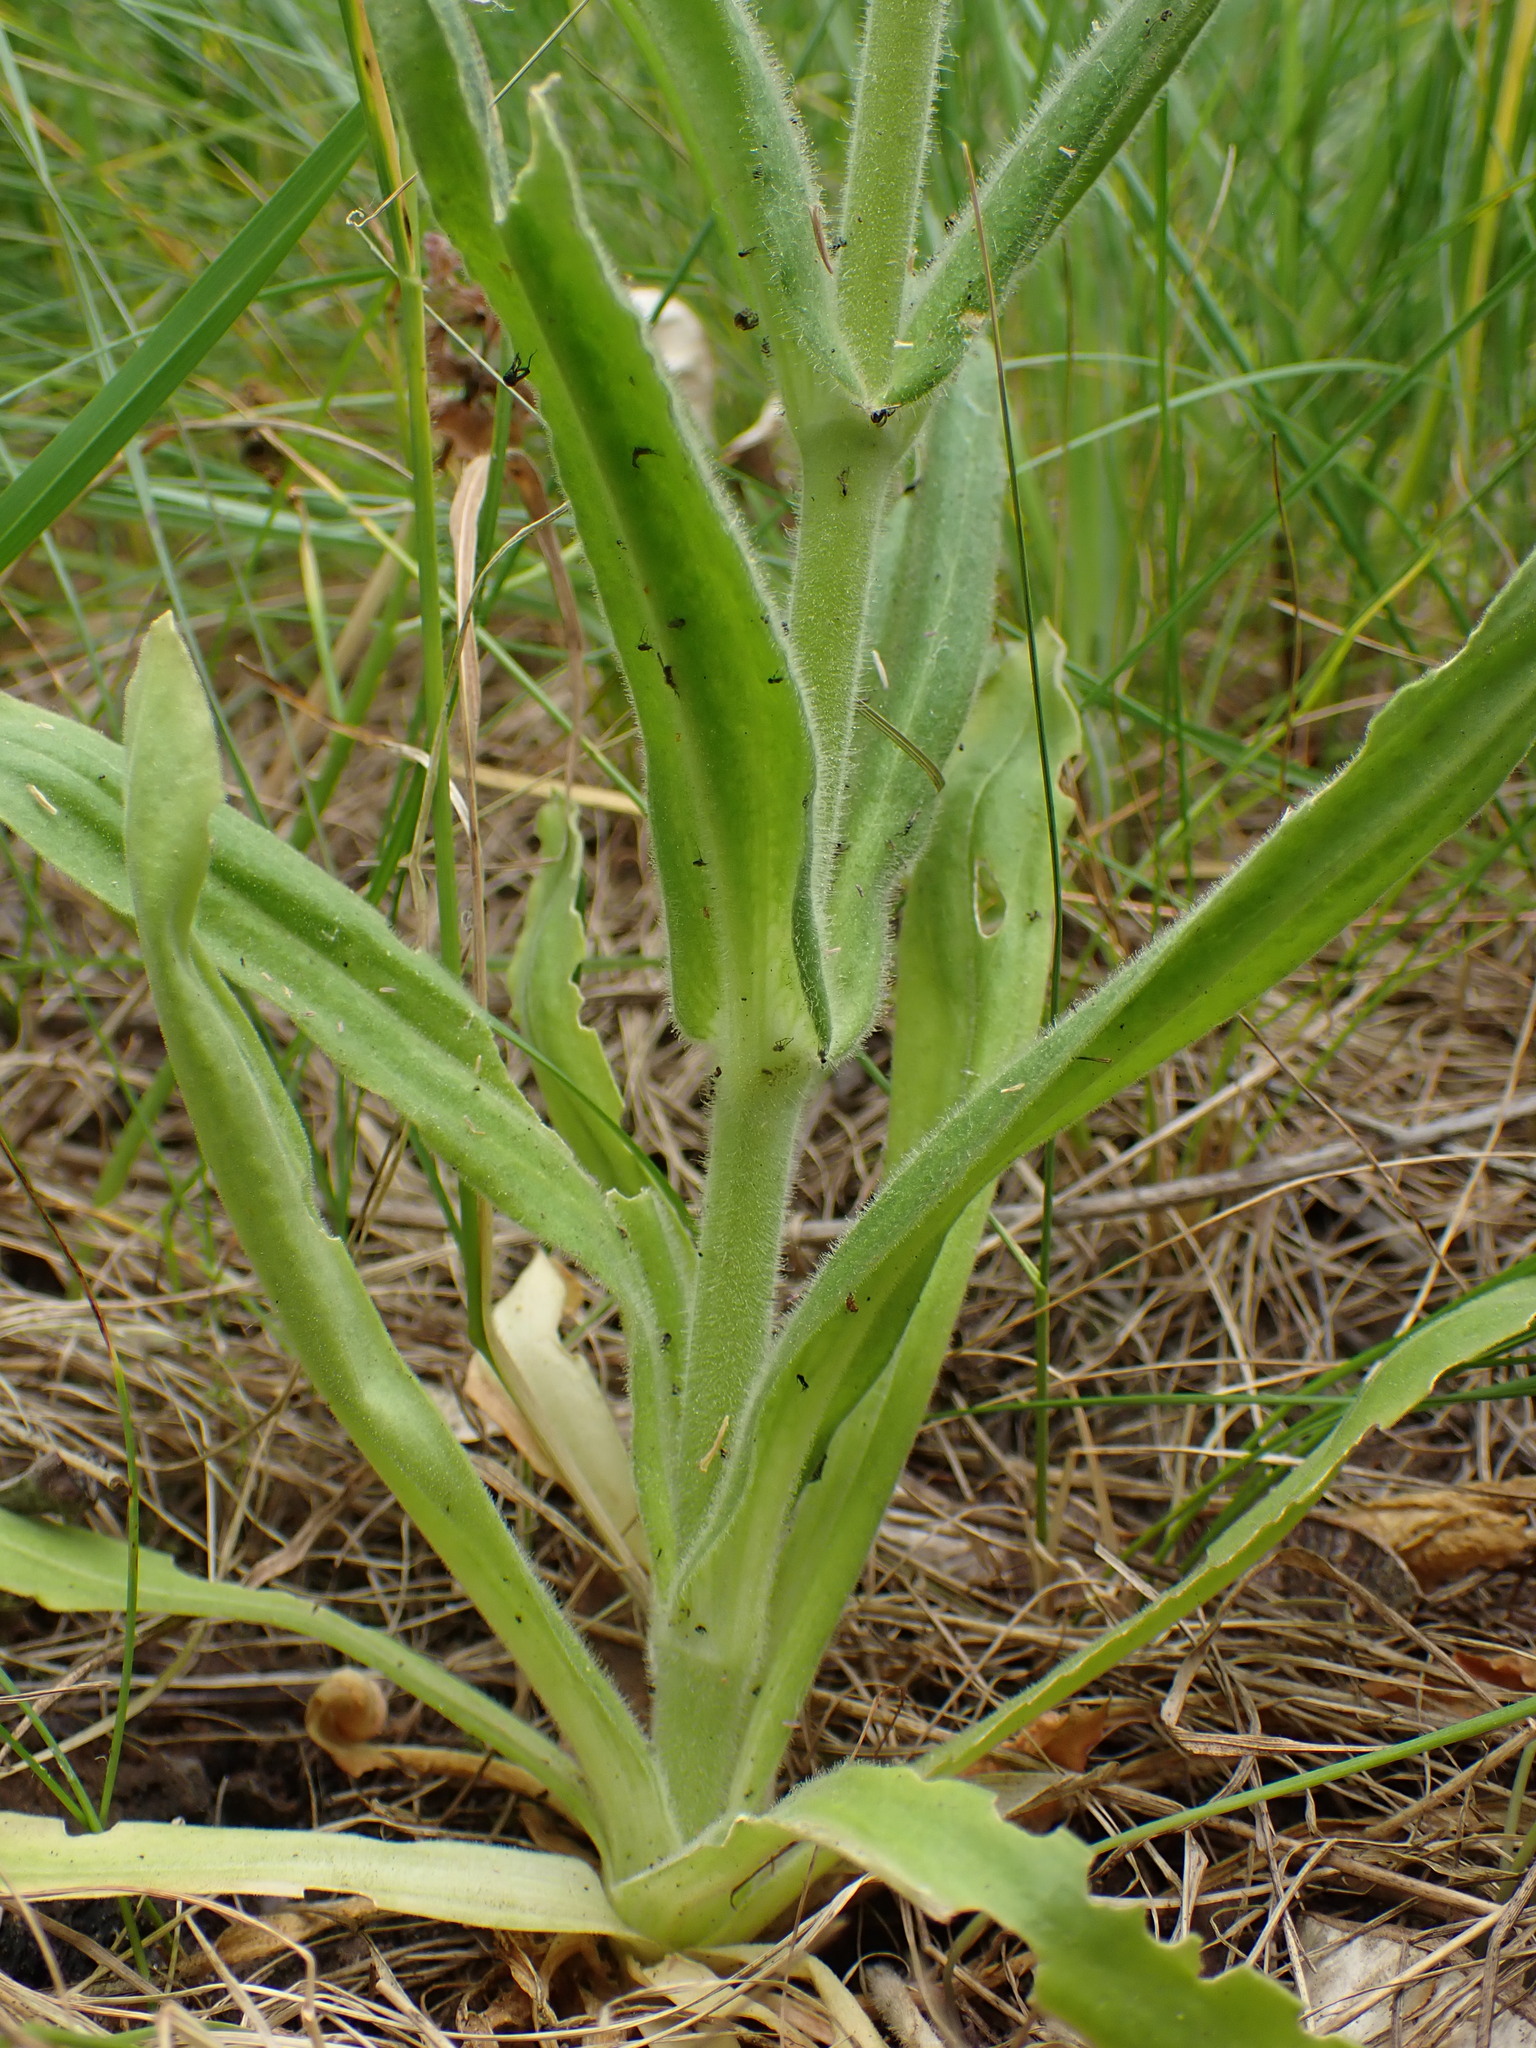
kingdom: Plantae
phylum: Tracheophyta
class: Magnoliopsida
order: Caryophyllales
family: Caryophyllaceae
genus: Silene
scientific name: Silene viscosa
